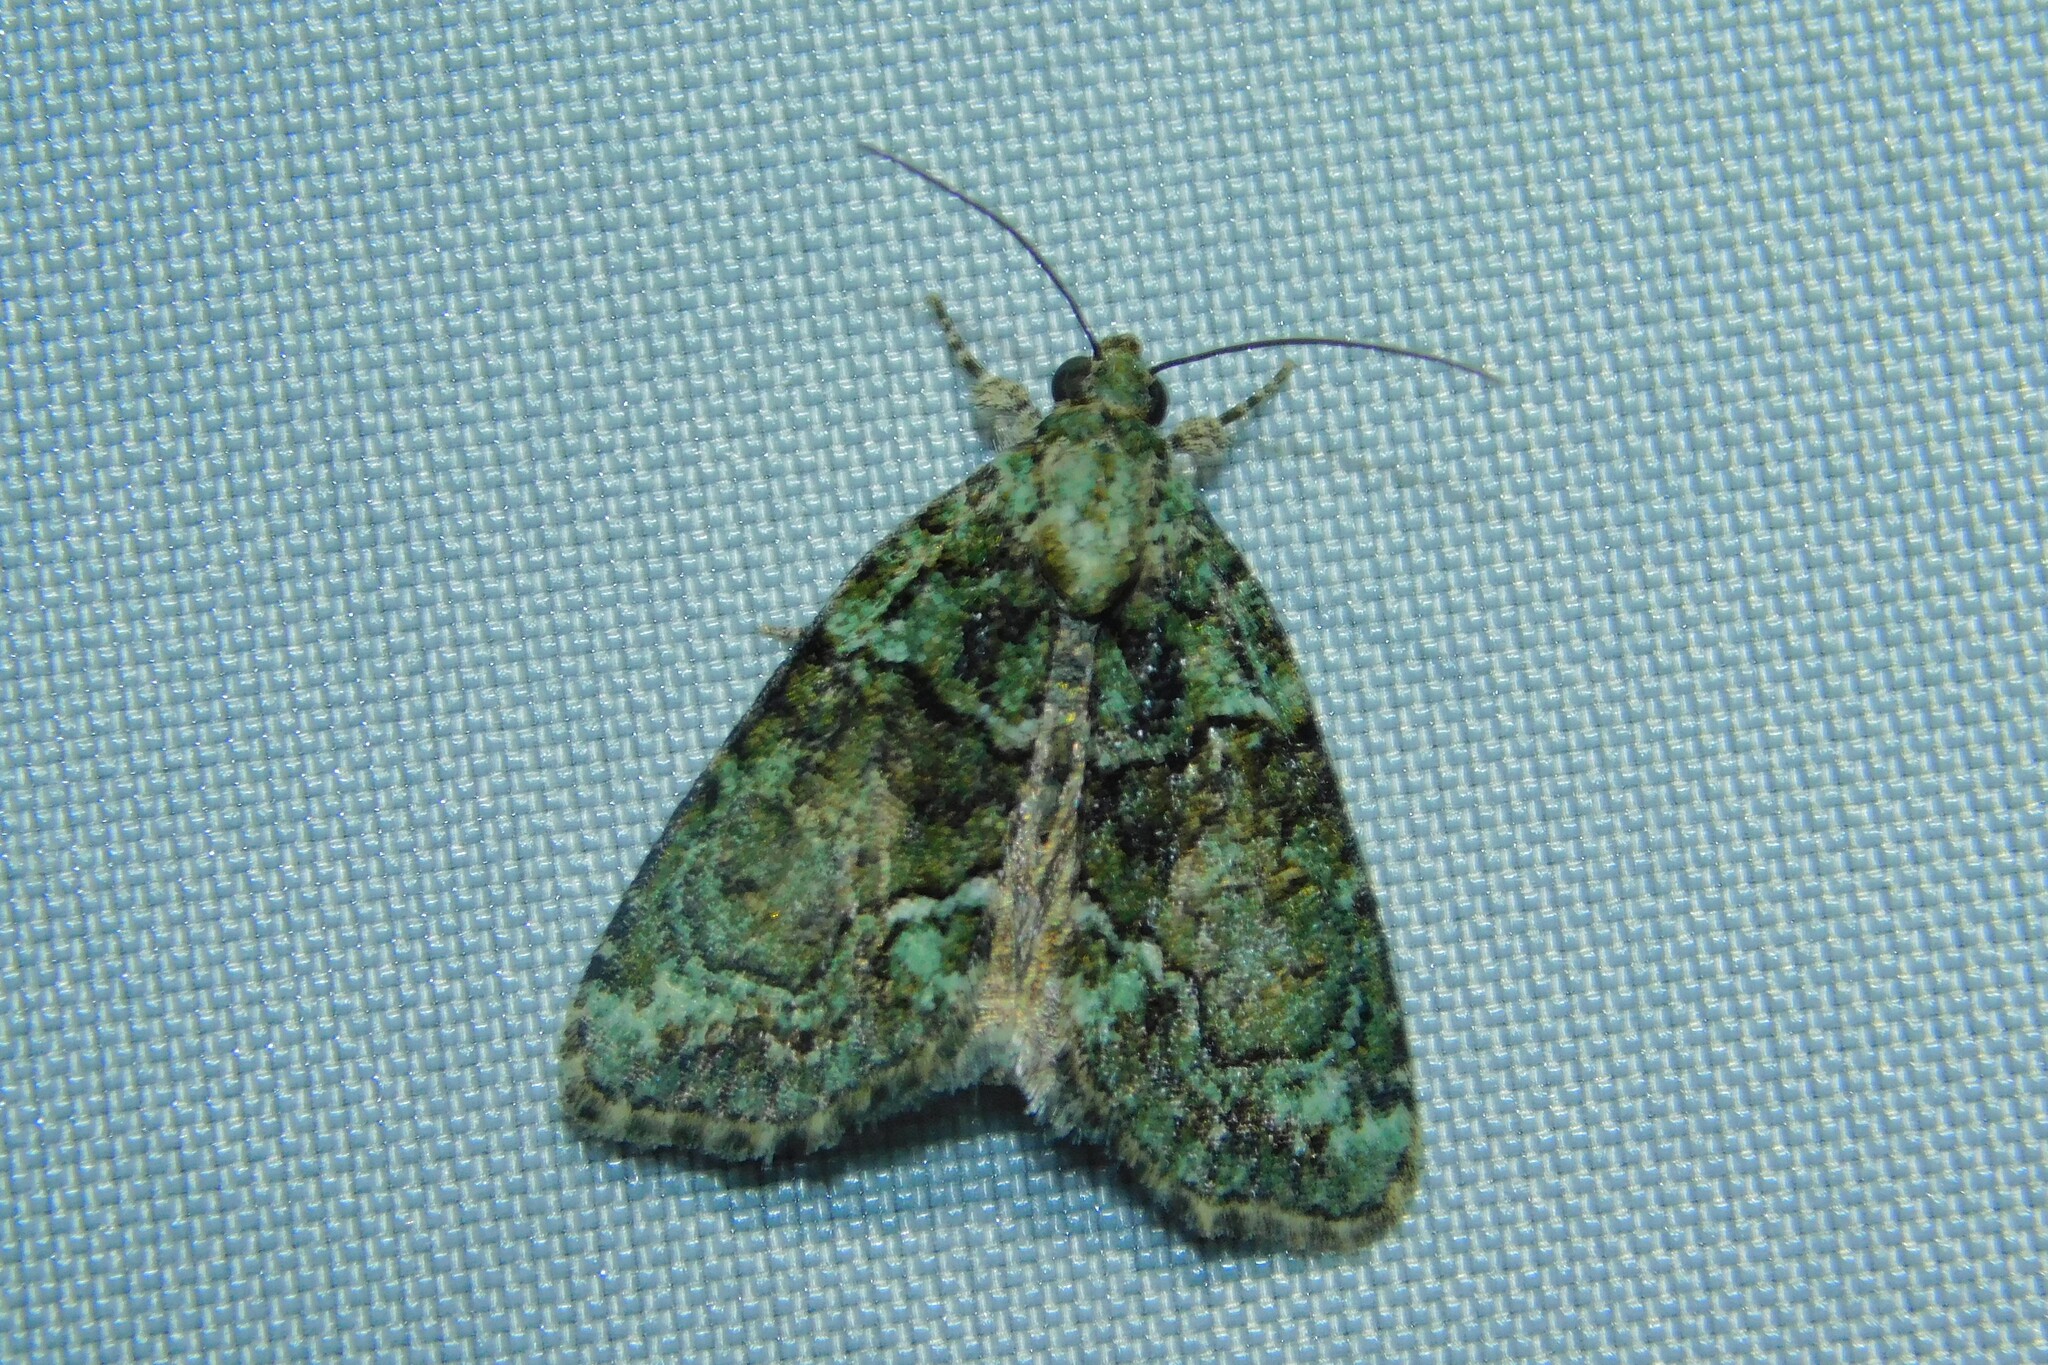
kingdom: Animalia
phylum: Arthropoda
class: Insecta
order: Lepidoptera
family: Noctuidae
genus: Cryphia
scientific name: Cryphia algae
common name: Tree-lichen beauty
